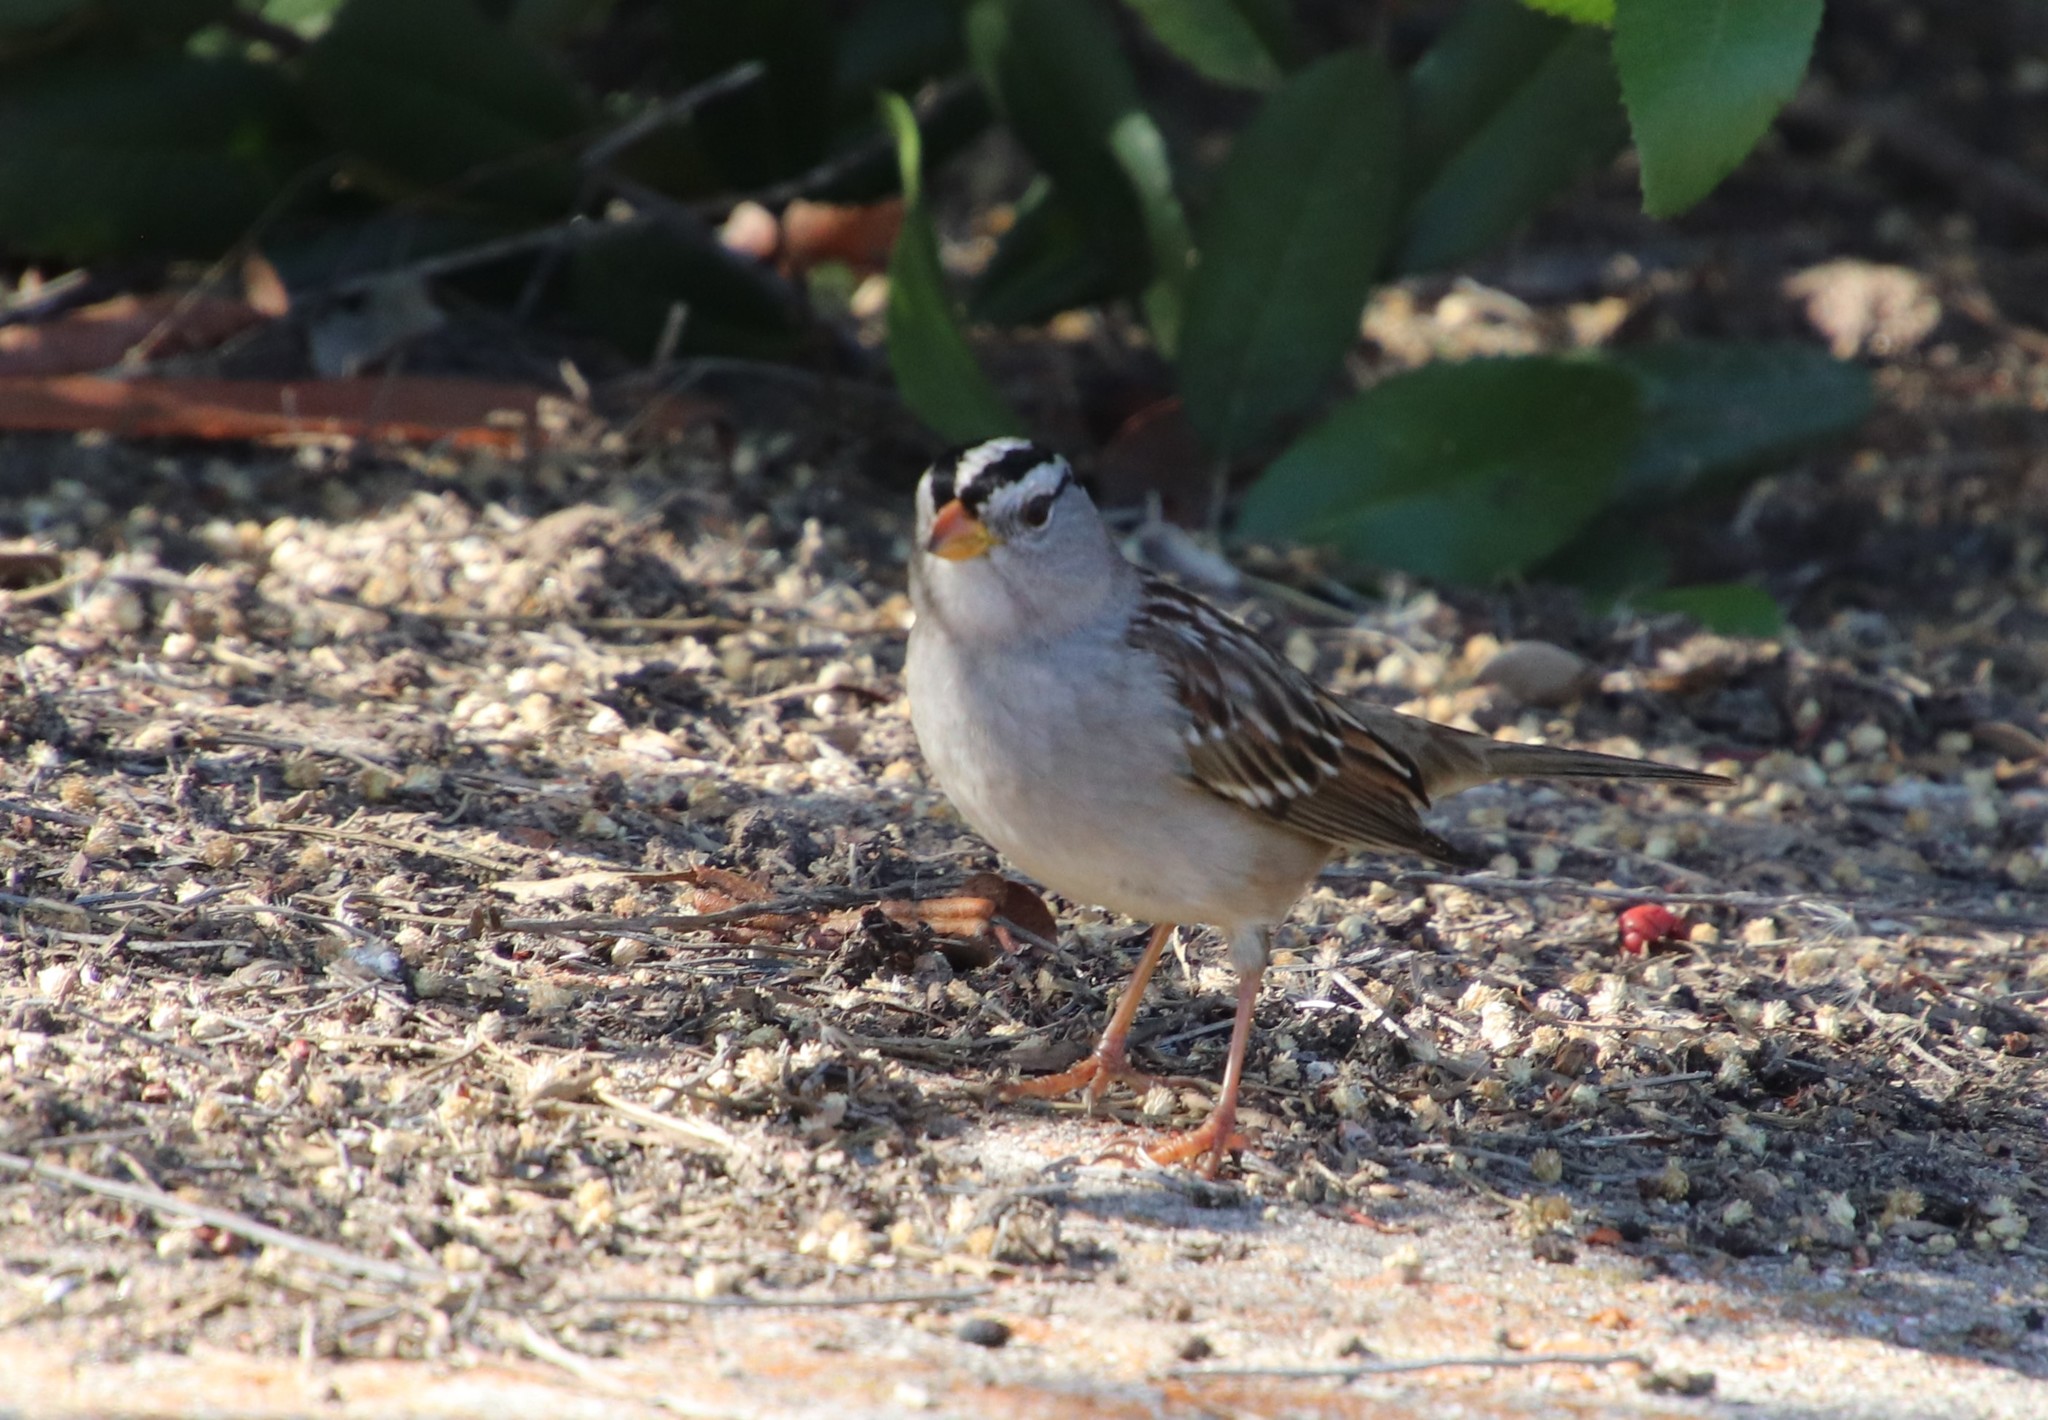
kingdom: Animalia
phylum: Chordata
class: Aves
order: Passeriformes
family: Passerellidae
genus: Zonotrichia
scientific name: Zonotrichia leucophrys
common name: White-crowned sparrow
